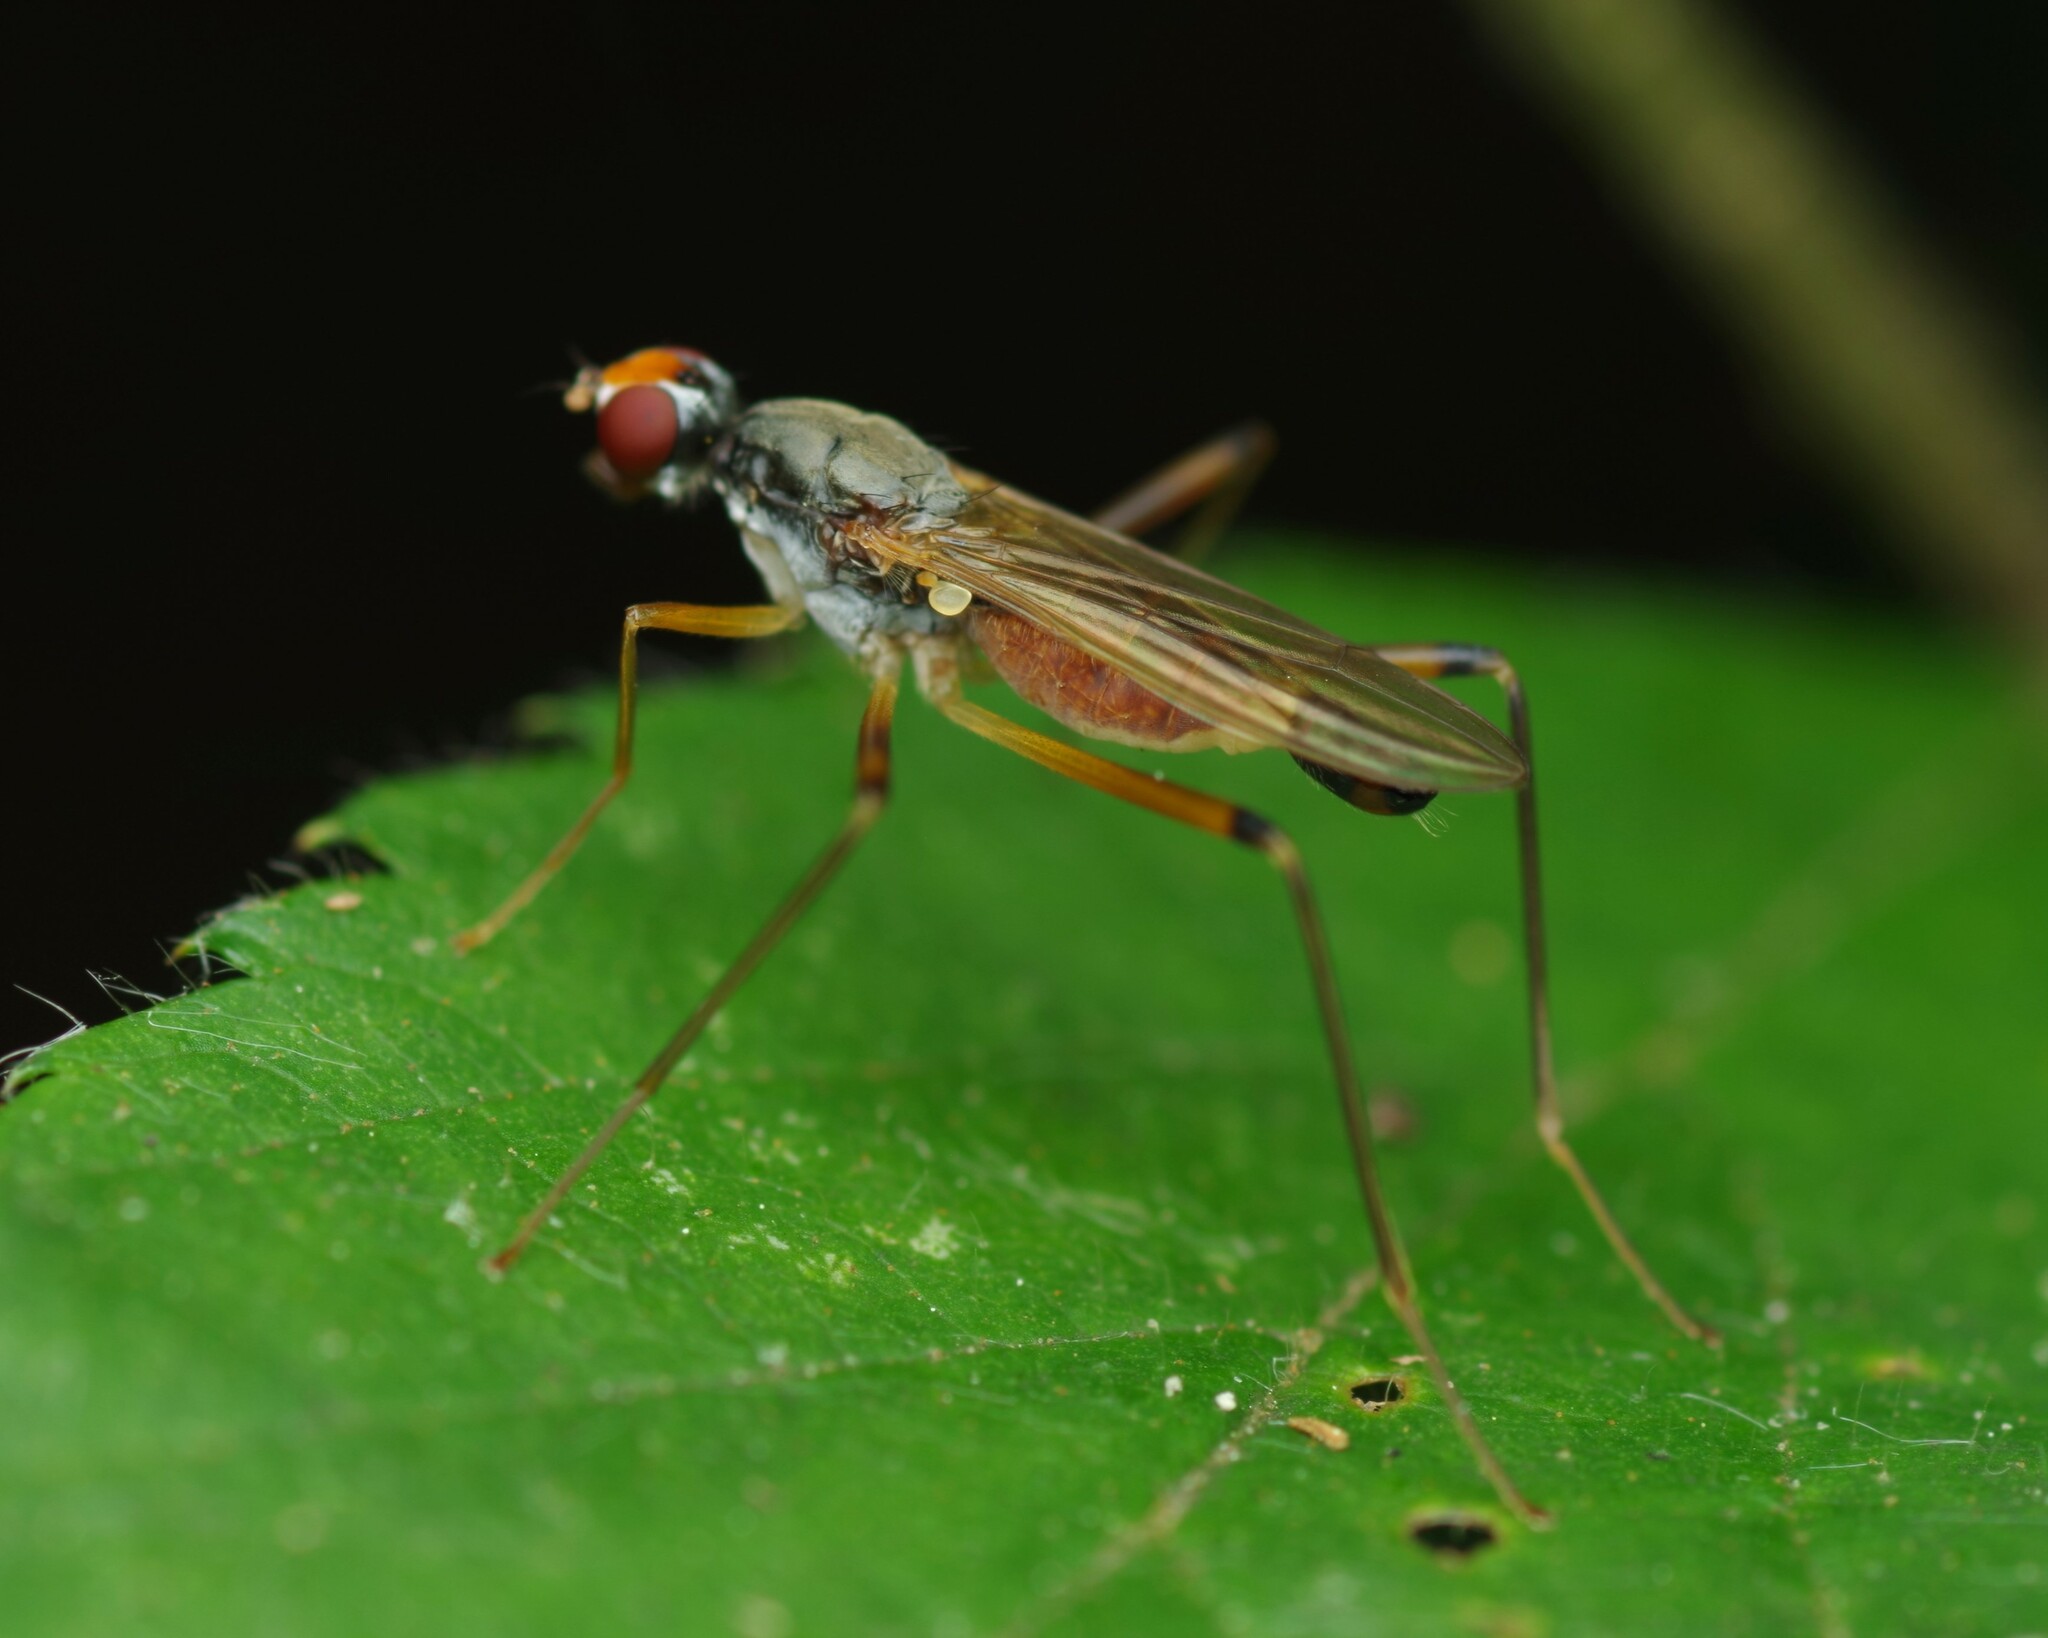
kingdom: Animalia
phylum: Arthropoda
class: Insecta
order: Diptera
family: Micropezidae
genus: Compsobata
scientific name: Compsobata cibaria
